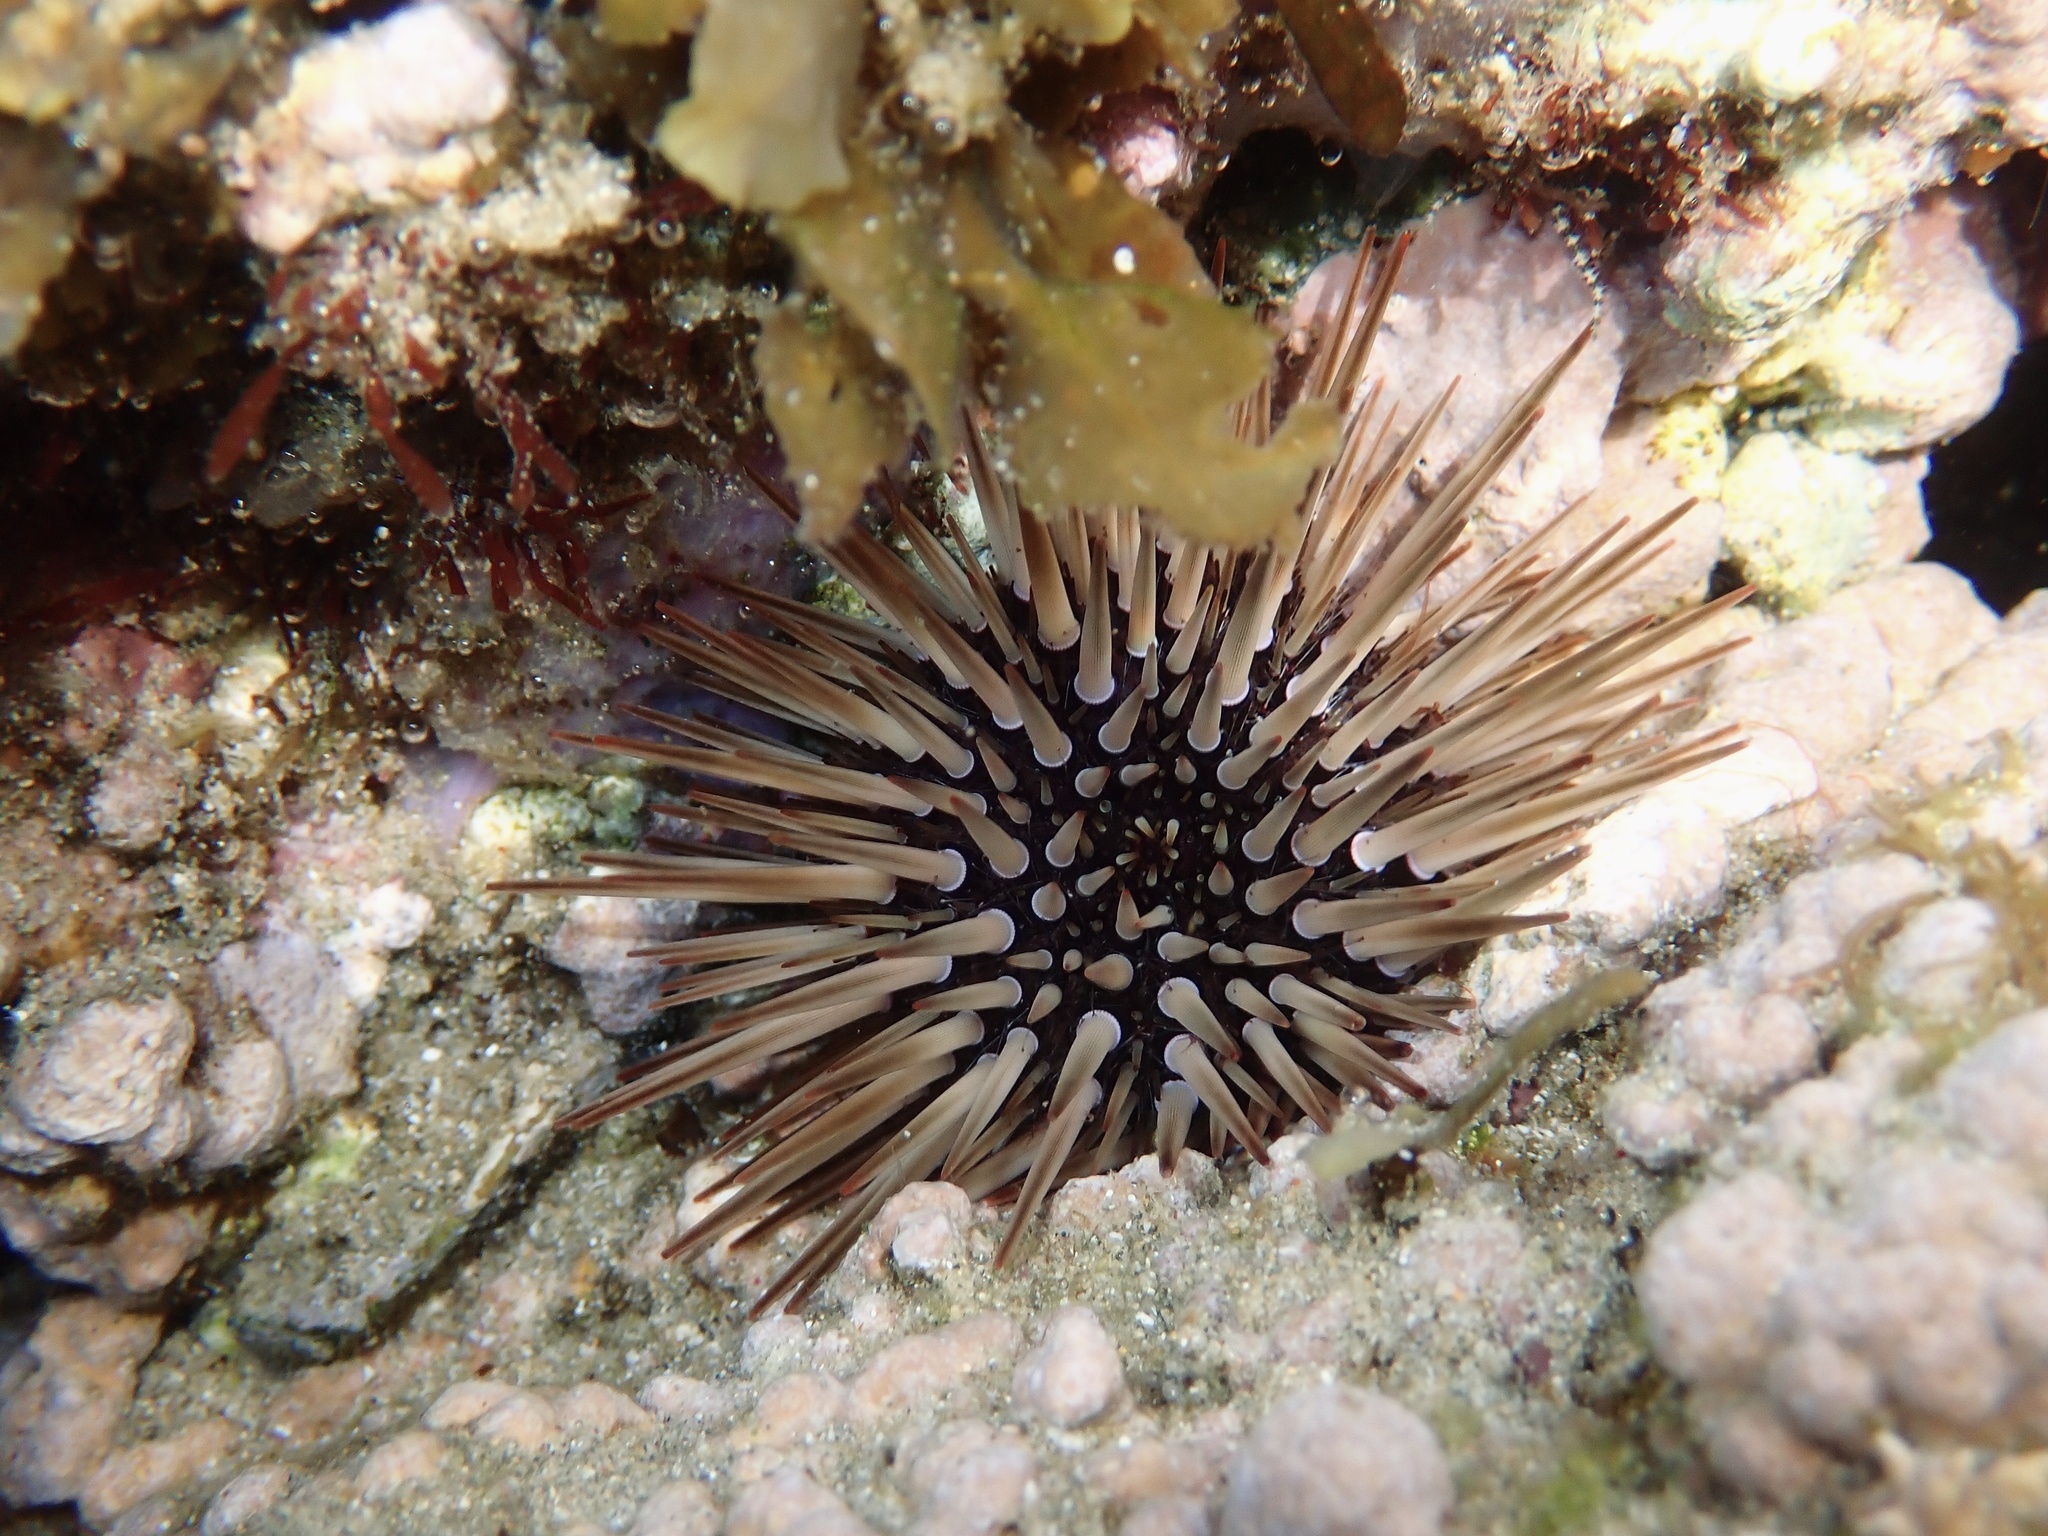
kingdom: Animalia
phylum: Echinodermata
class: Echinoidea
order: Camarodonta
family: Echinometridae
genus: Echinometra
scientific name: Echinometra mathaei
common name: Rock-boring urchin
